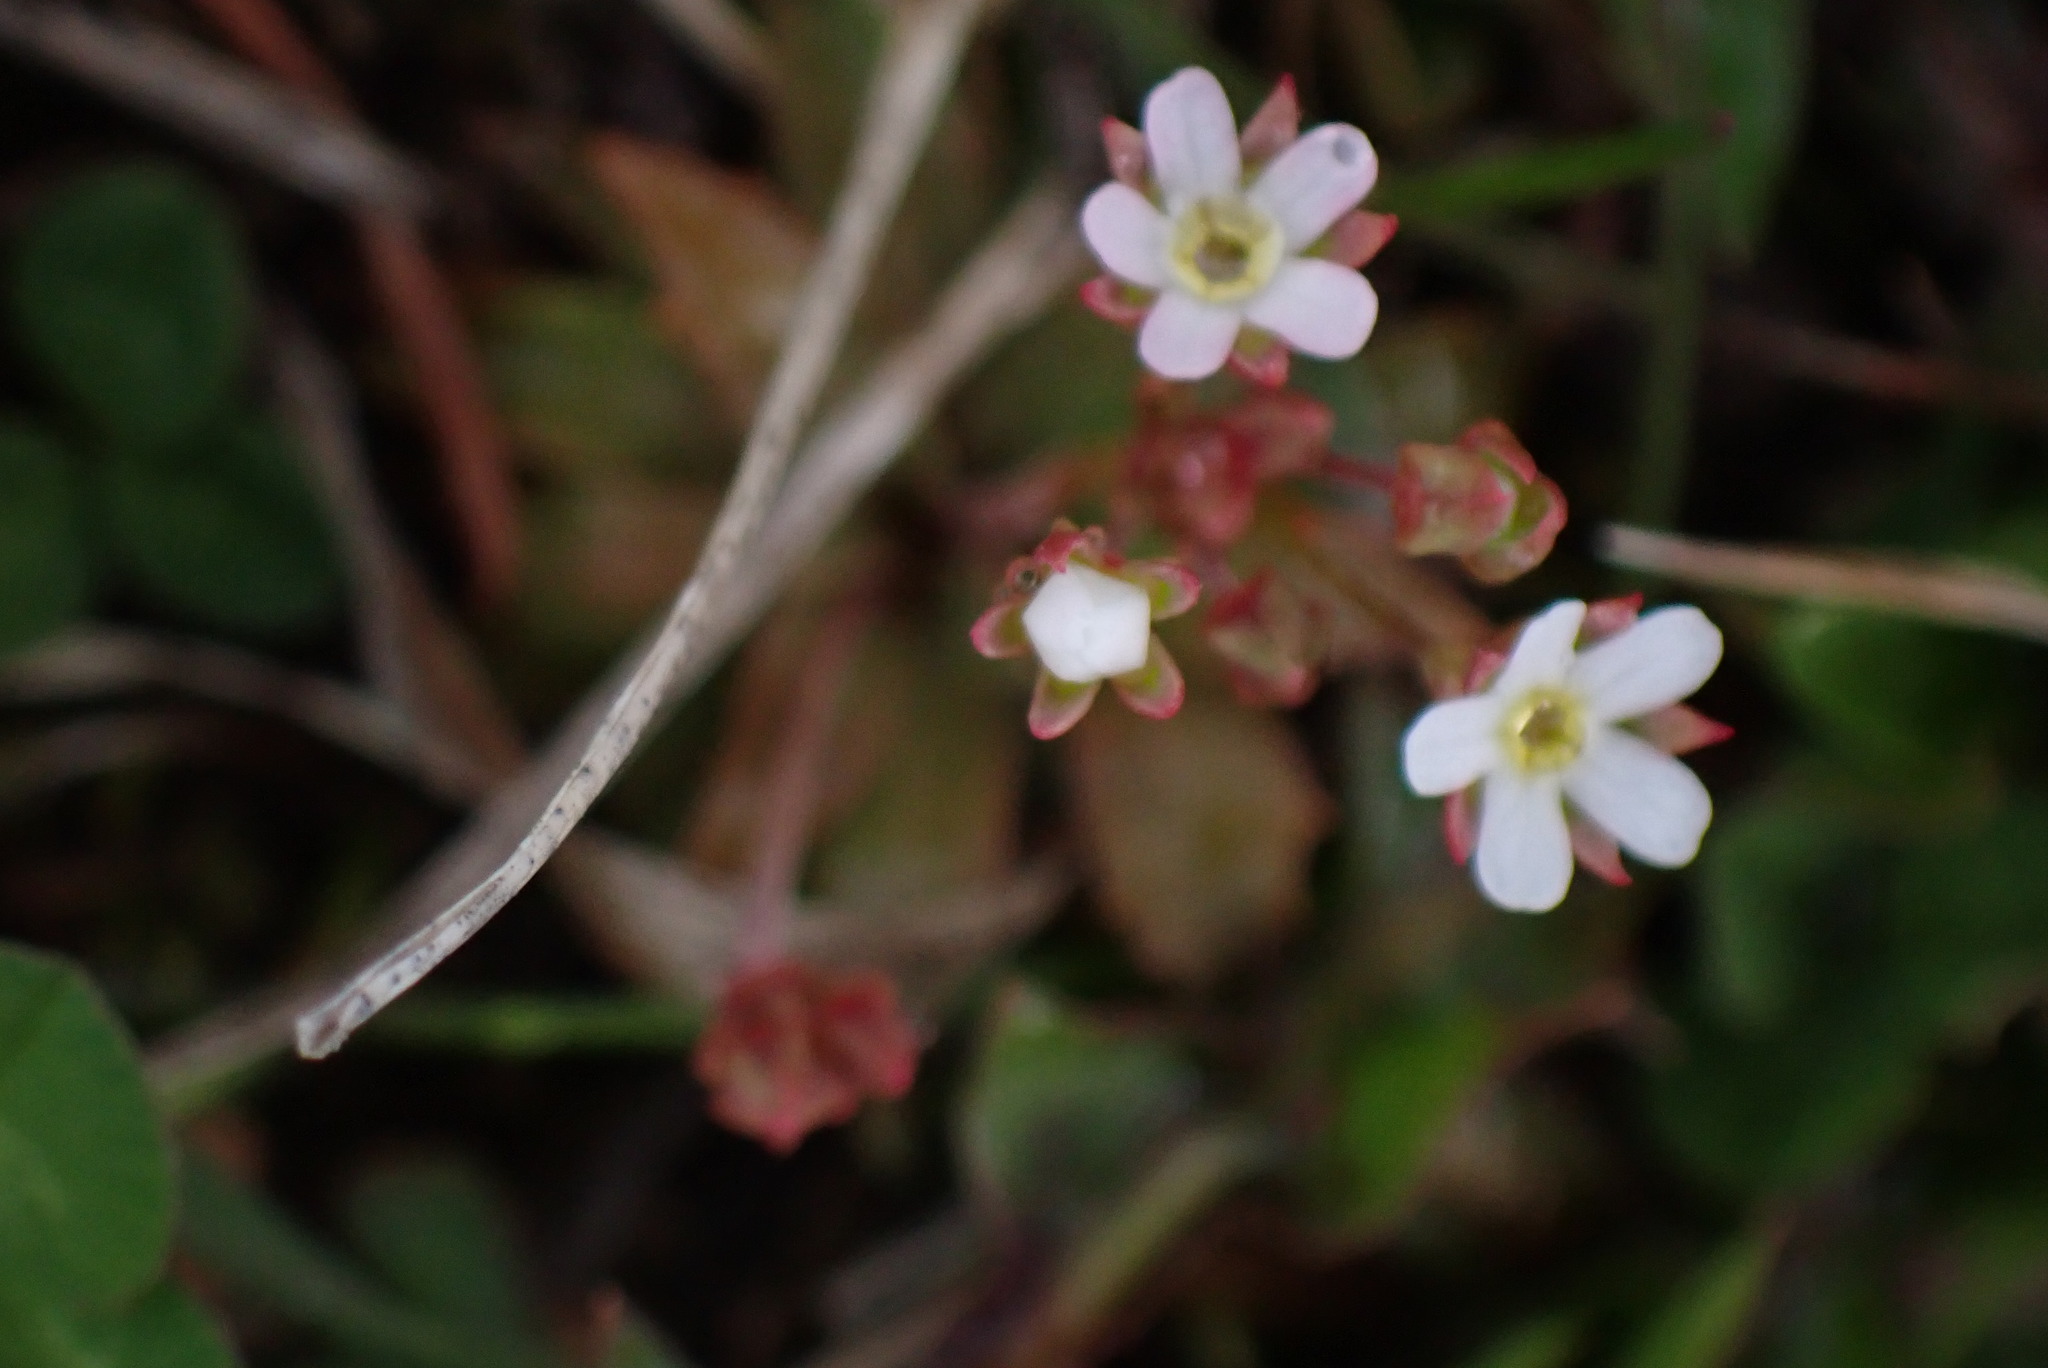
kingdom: Plantae
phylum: Tracheophyta
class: Magnoliopsida
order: Ericales
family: Primulaceae
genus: Androsace
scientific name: Androsace septentrionalis
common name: Hairy northern fairy-candelabra
